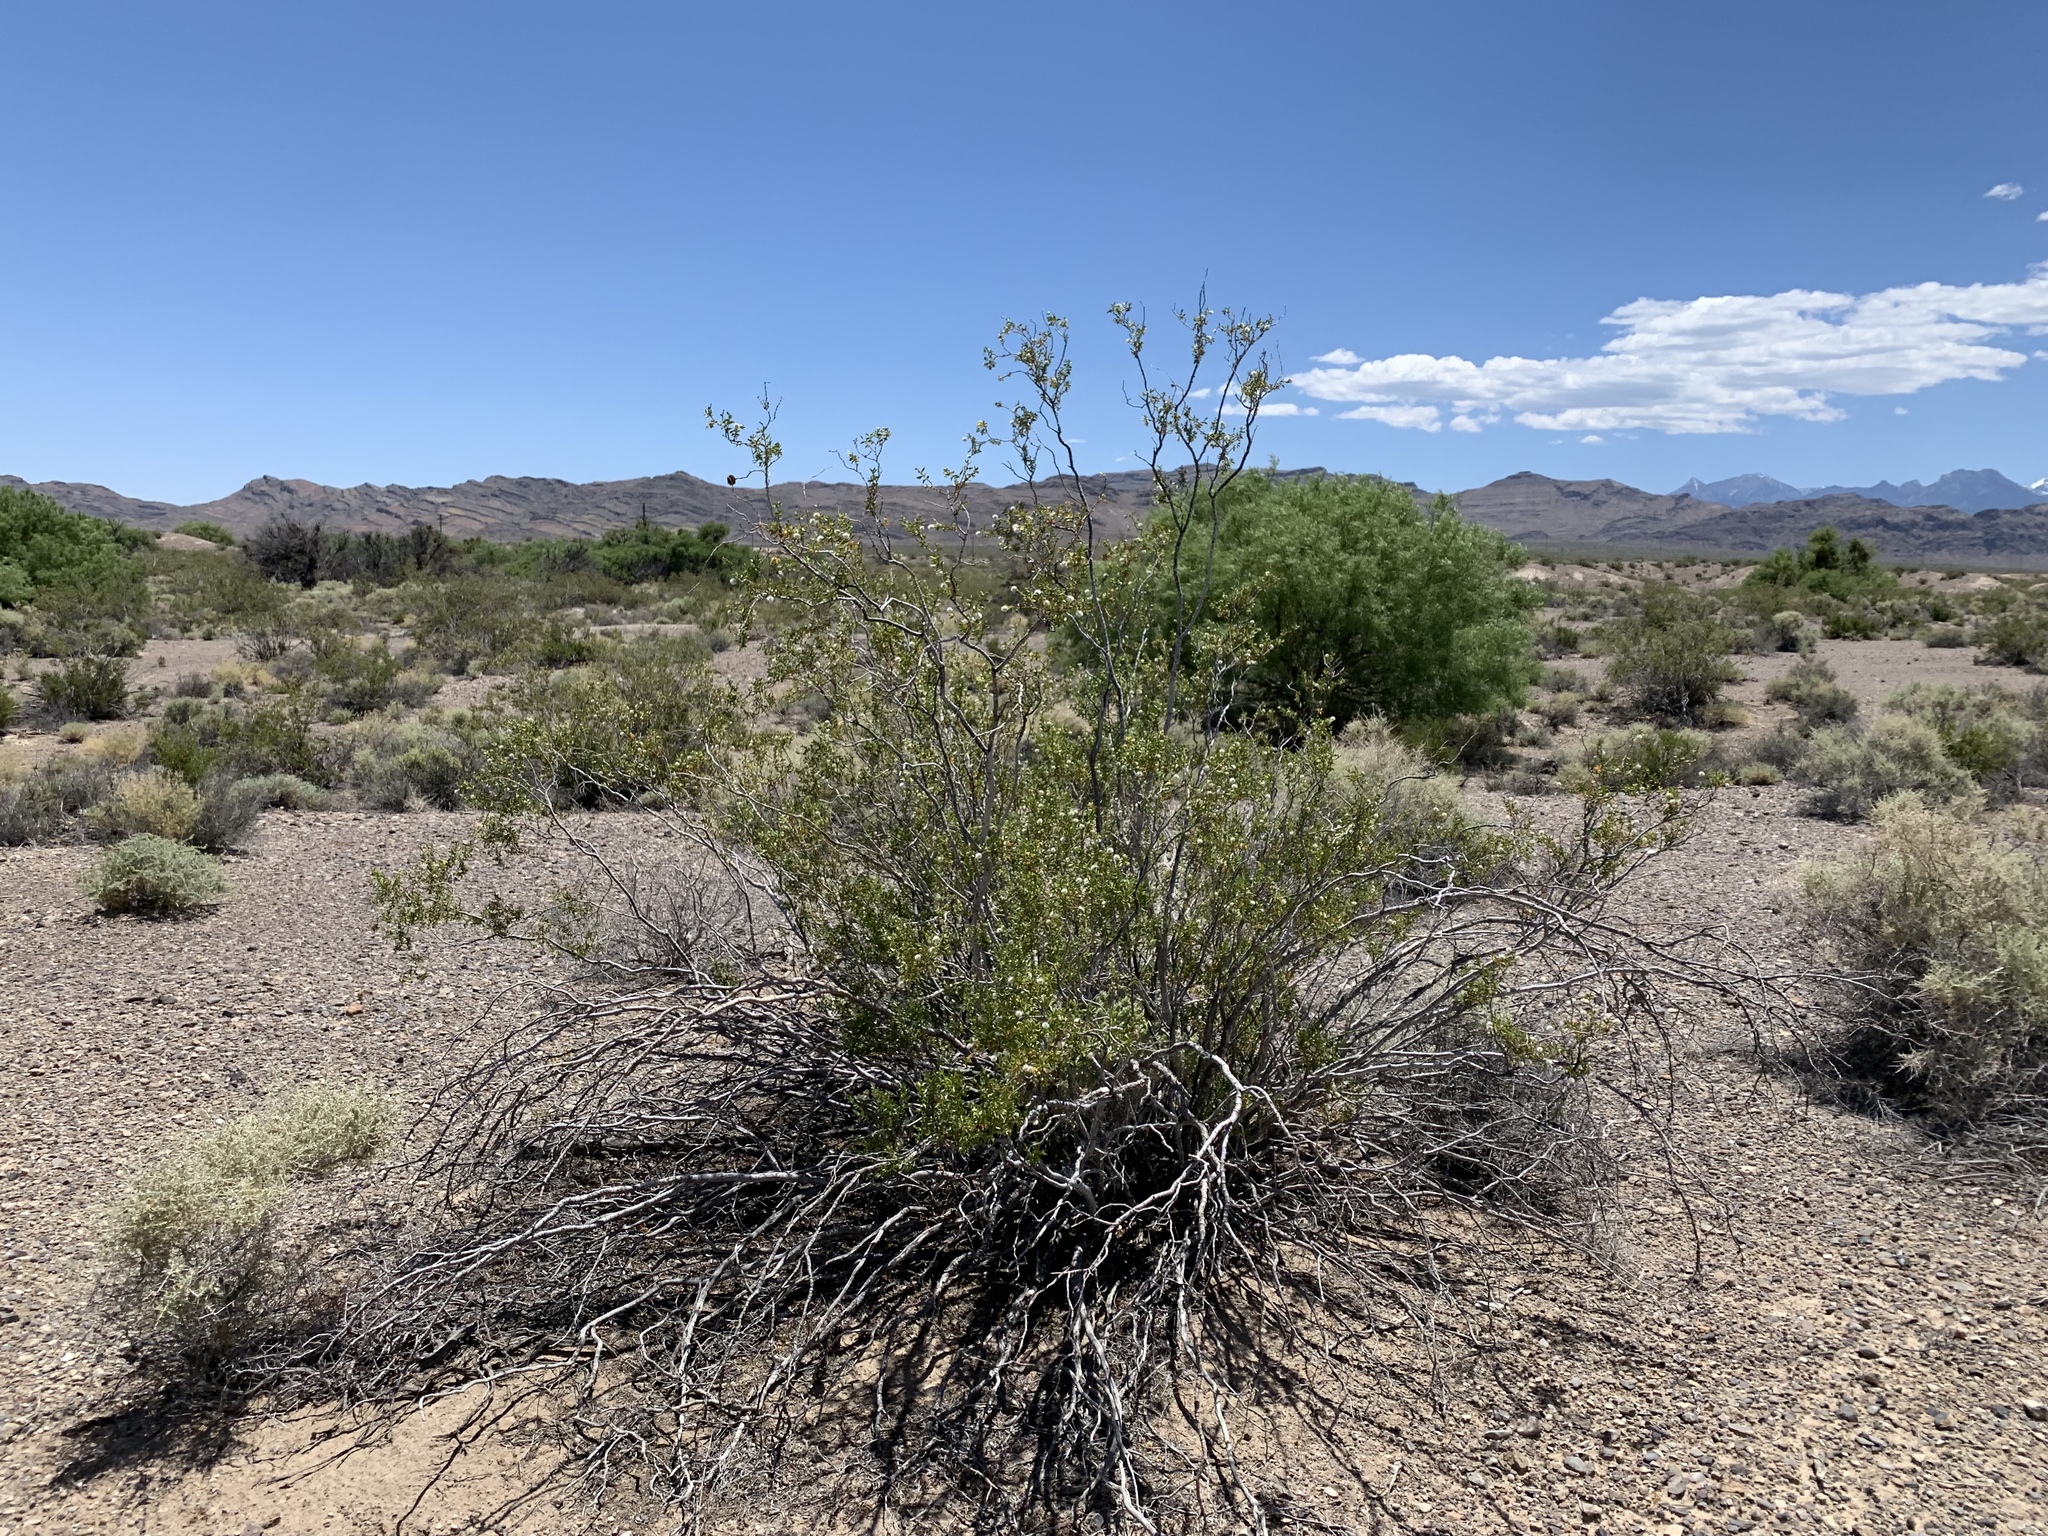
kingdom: Plantae
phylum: Tracheophyta
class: Magnoliopsida
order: Zygophyllales
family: Zygophyllaceae
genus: Larrea
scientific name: Larrea tridentata
